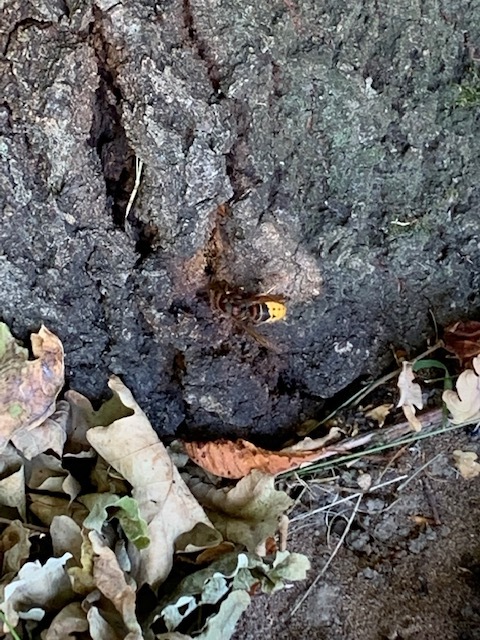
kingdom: Animalia
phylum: Arthropoda
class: Insecta
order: Hymenoptera
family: Vespidae
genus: Vespa
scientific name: Vespa crabro
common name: Hornet
